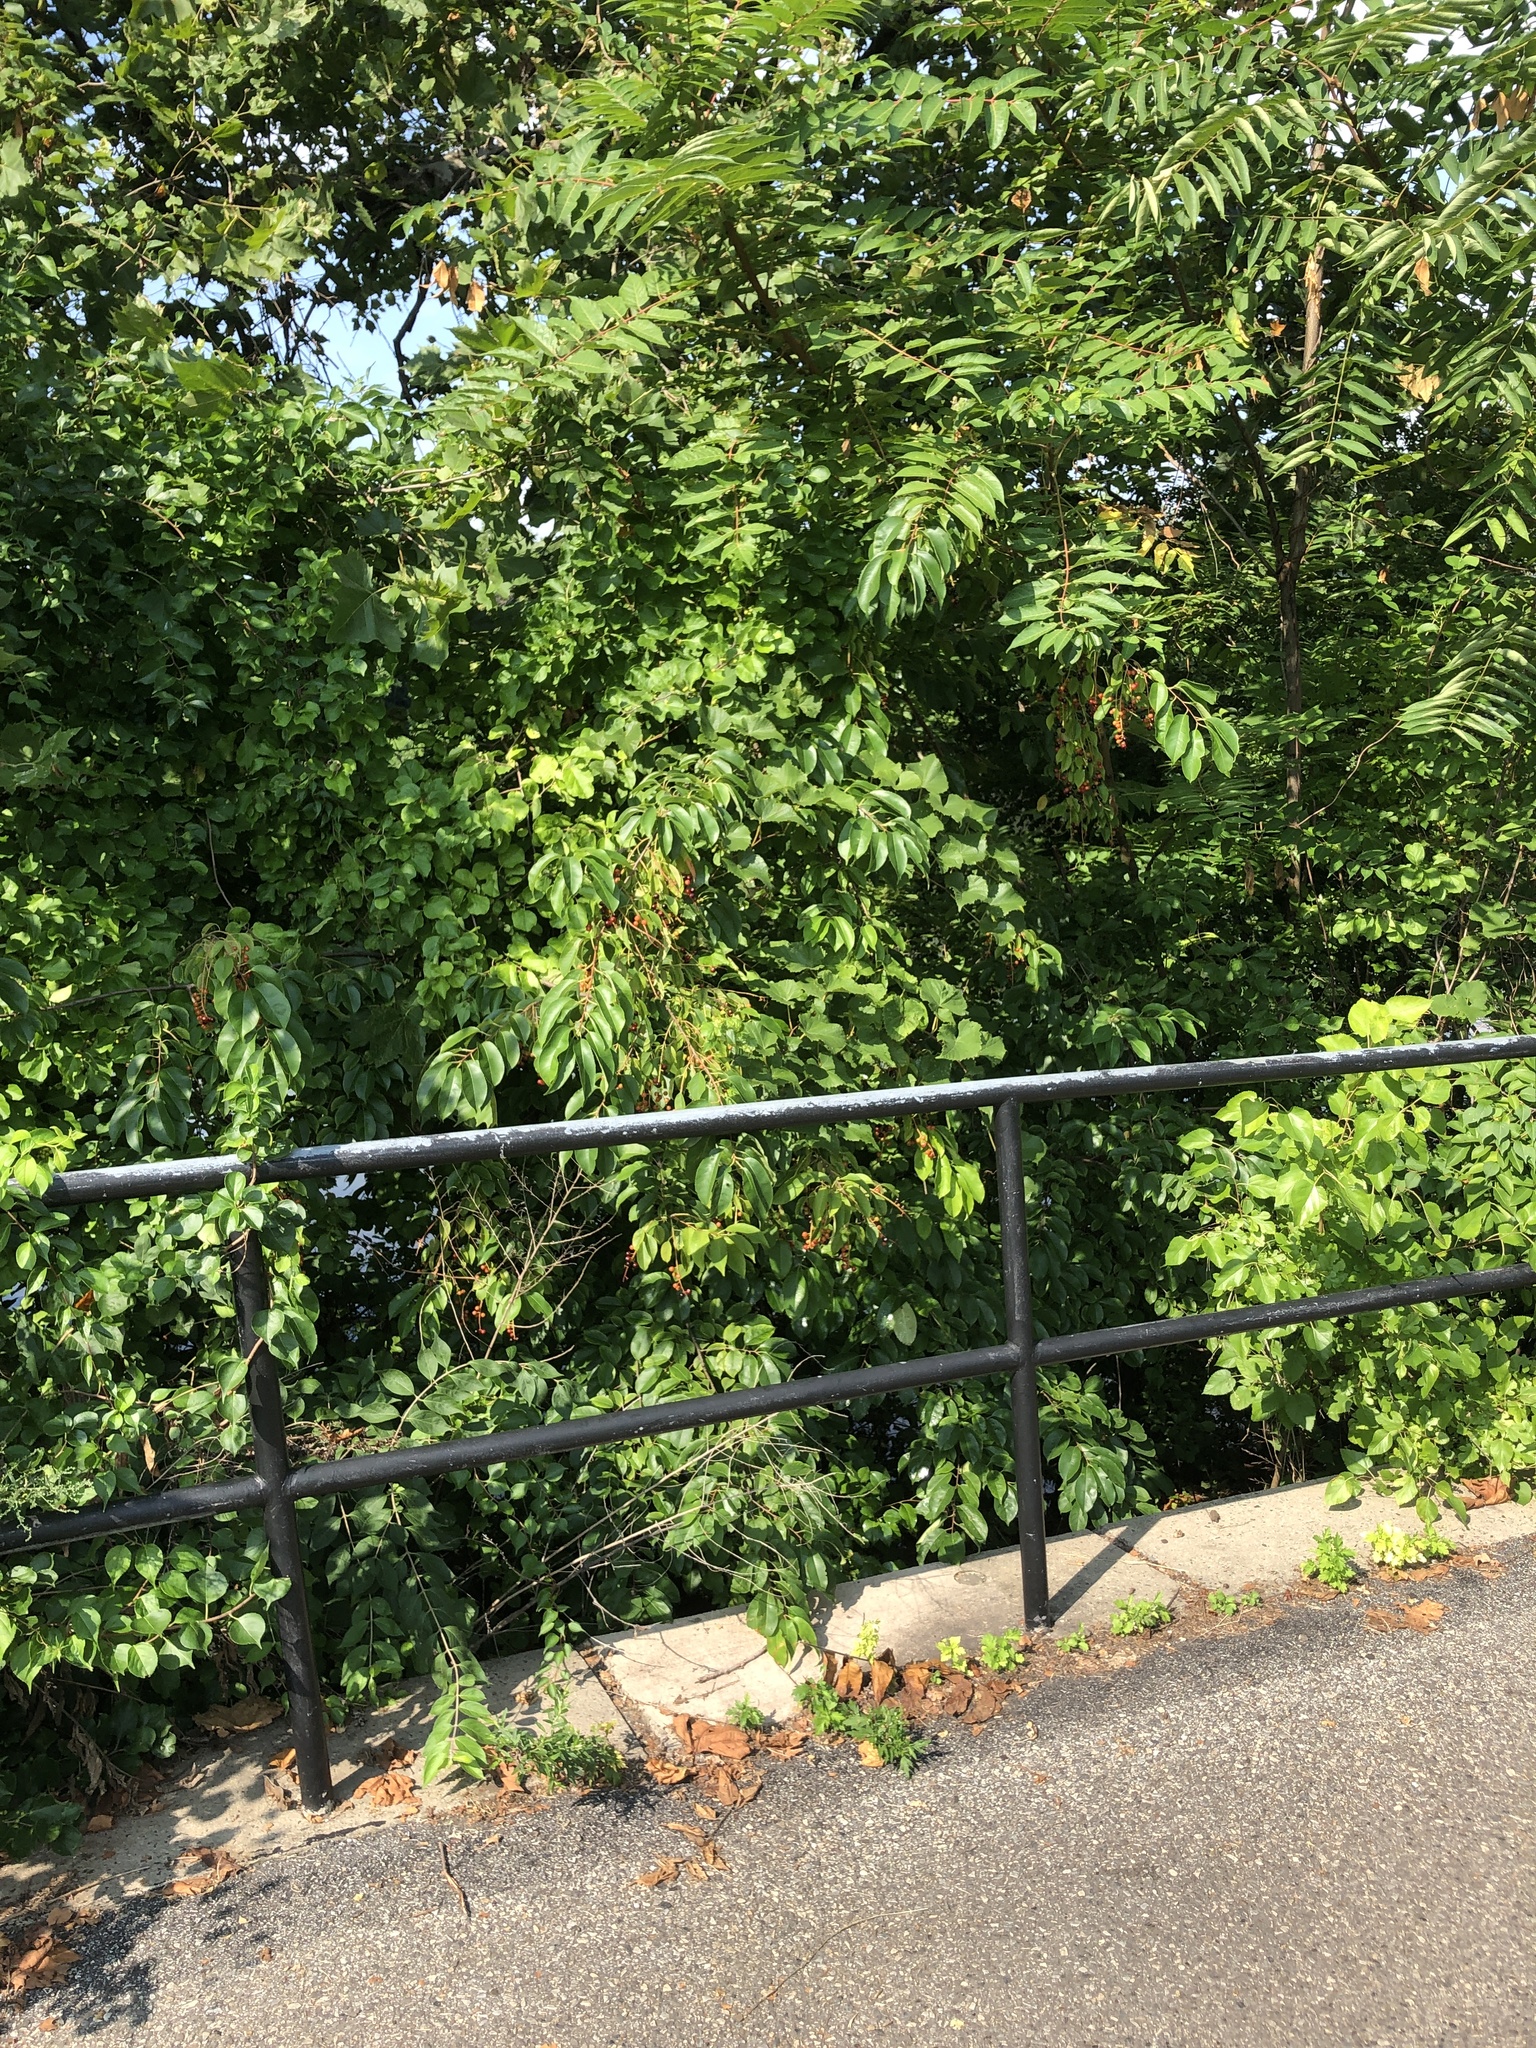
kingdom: Plantae
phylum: Tracheophyta
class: Magnoliopsida
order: Rosales
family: Rosaceae
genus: Prunus
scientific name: Prunus serotina
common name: Black cherry
